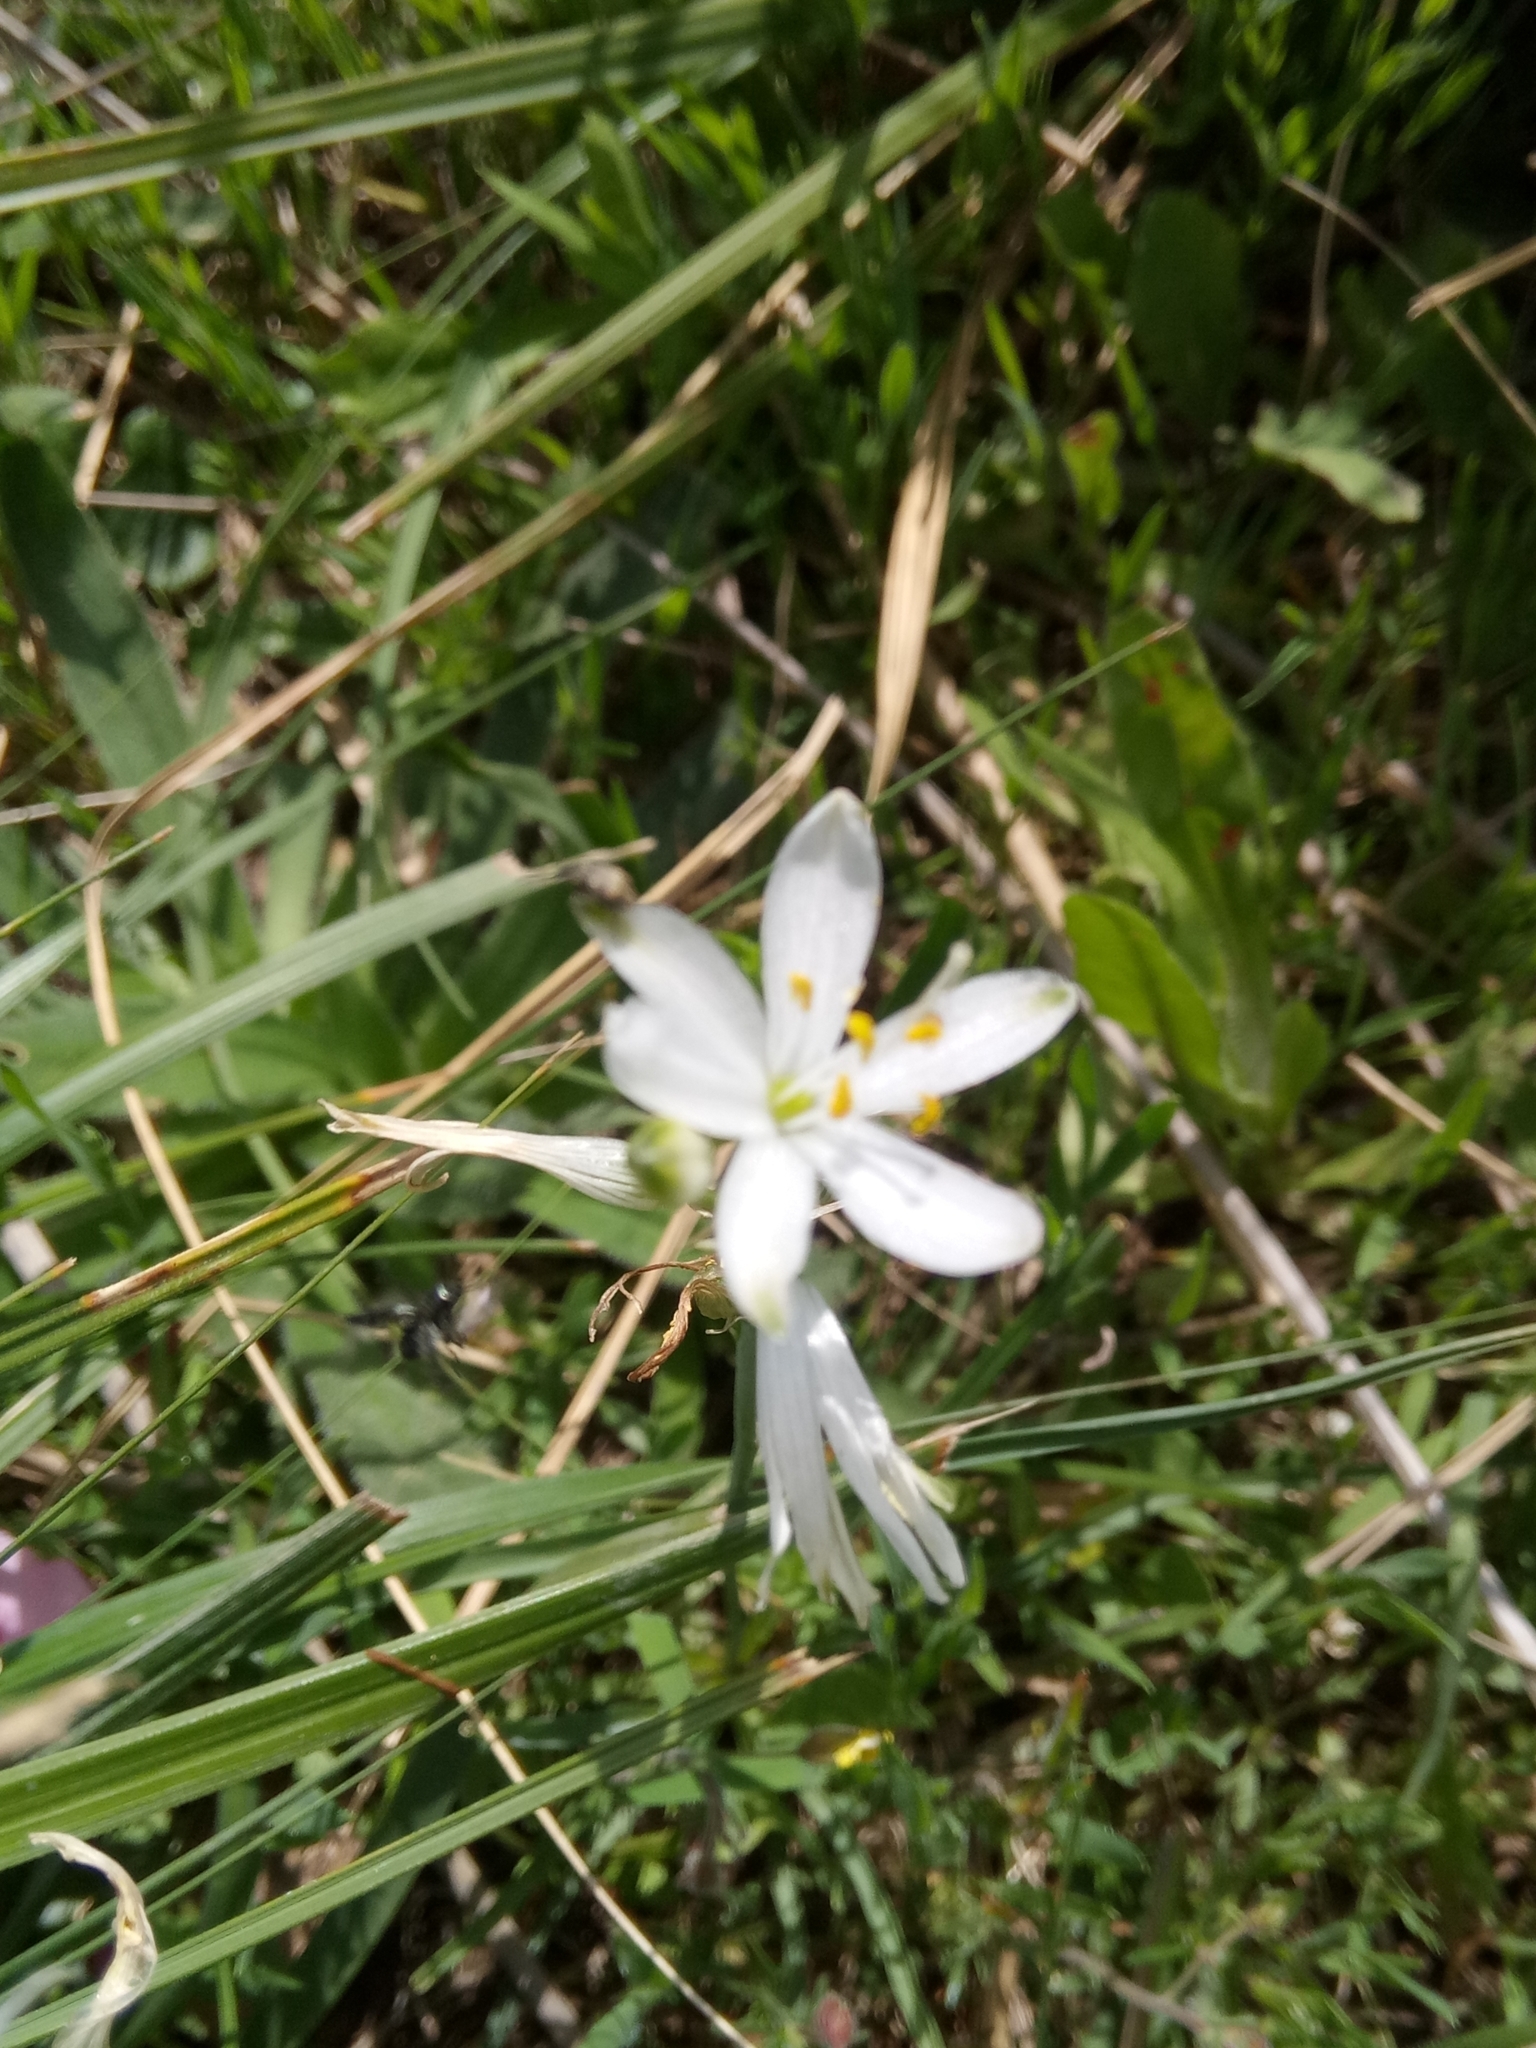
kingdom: Plantae
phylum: Tracheophyta
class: Liliopsida
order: Asparagales
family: Asparagaceae
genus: Anthericum
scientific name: Anthericum baeticum
